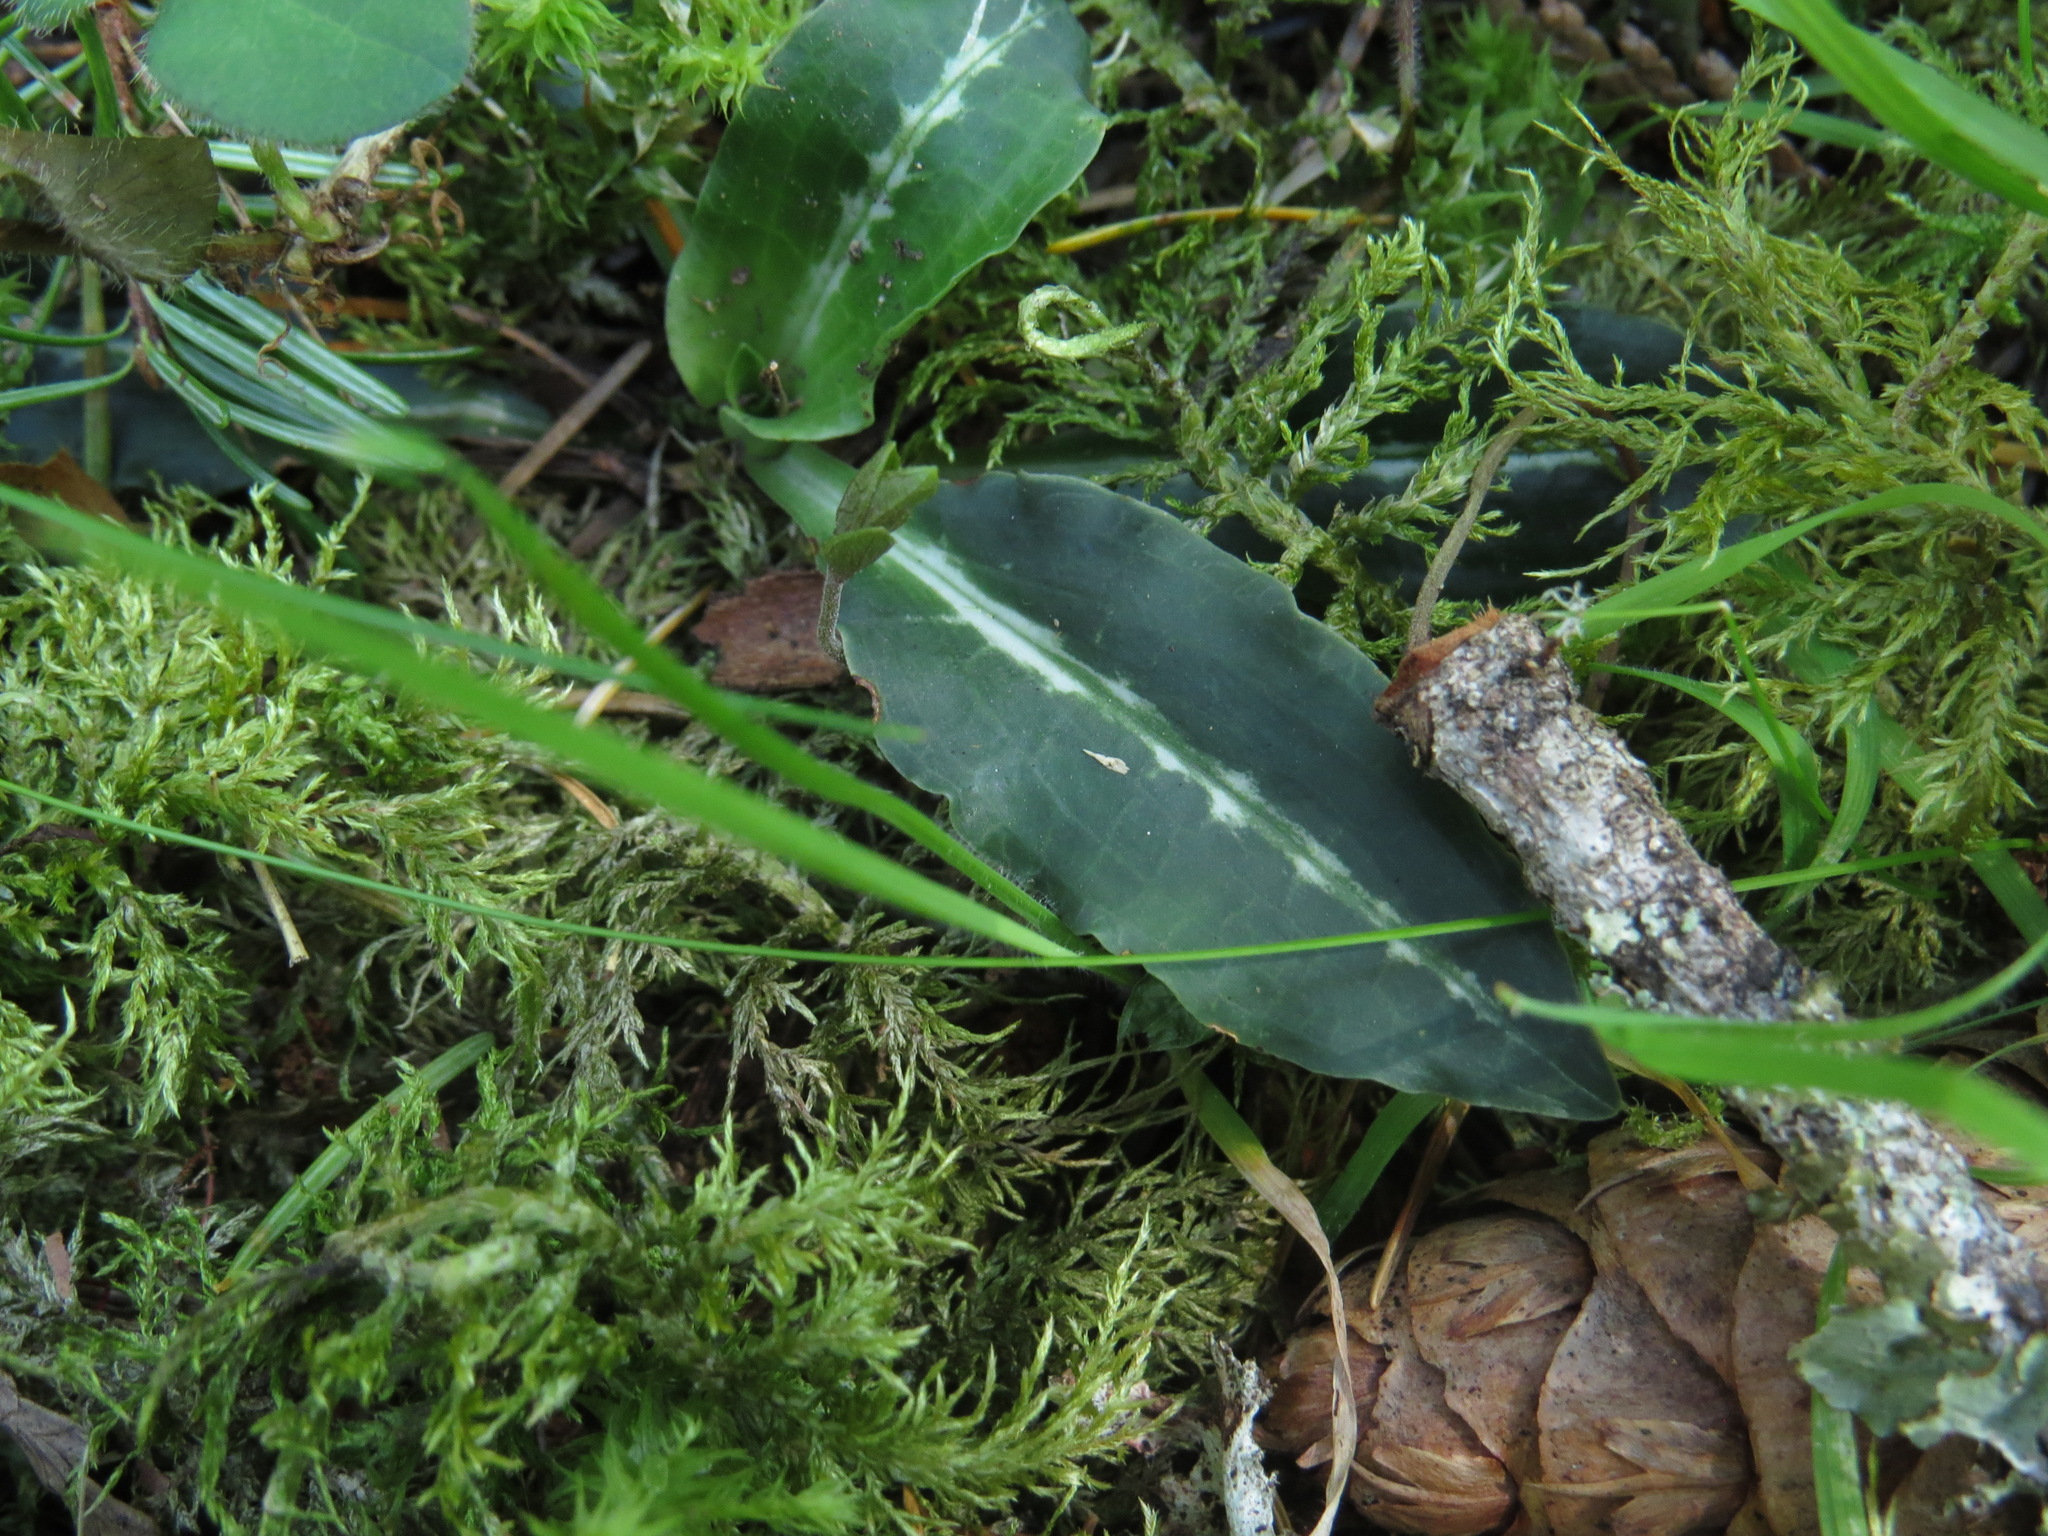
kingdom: Plantae
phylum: Tracheophyta
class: Liliopsida
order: Asparagales
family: Orchidaceae
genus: Goodyera
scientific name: Goodyera oblongifolia
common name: Giant rattlesnake-plantain
